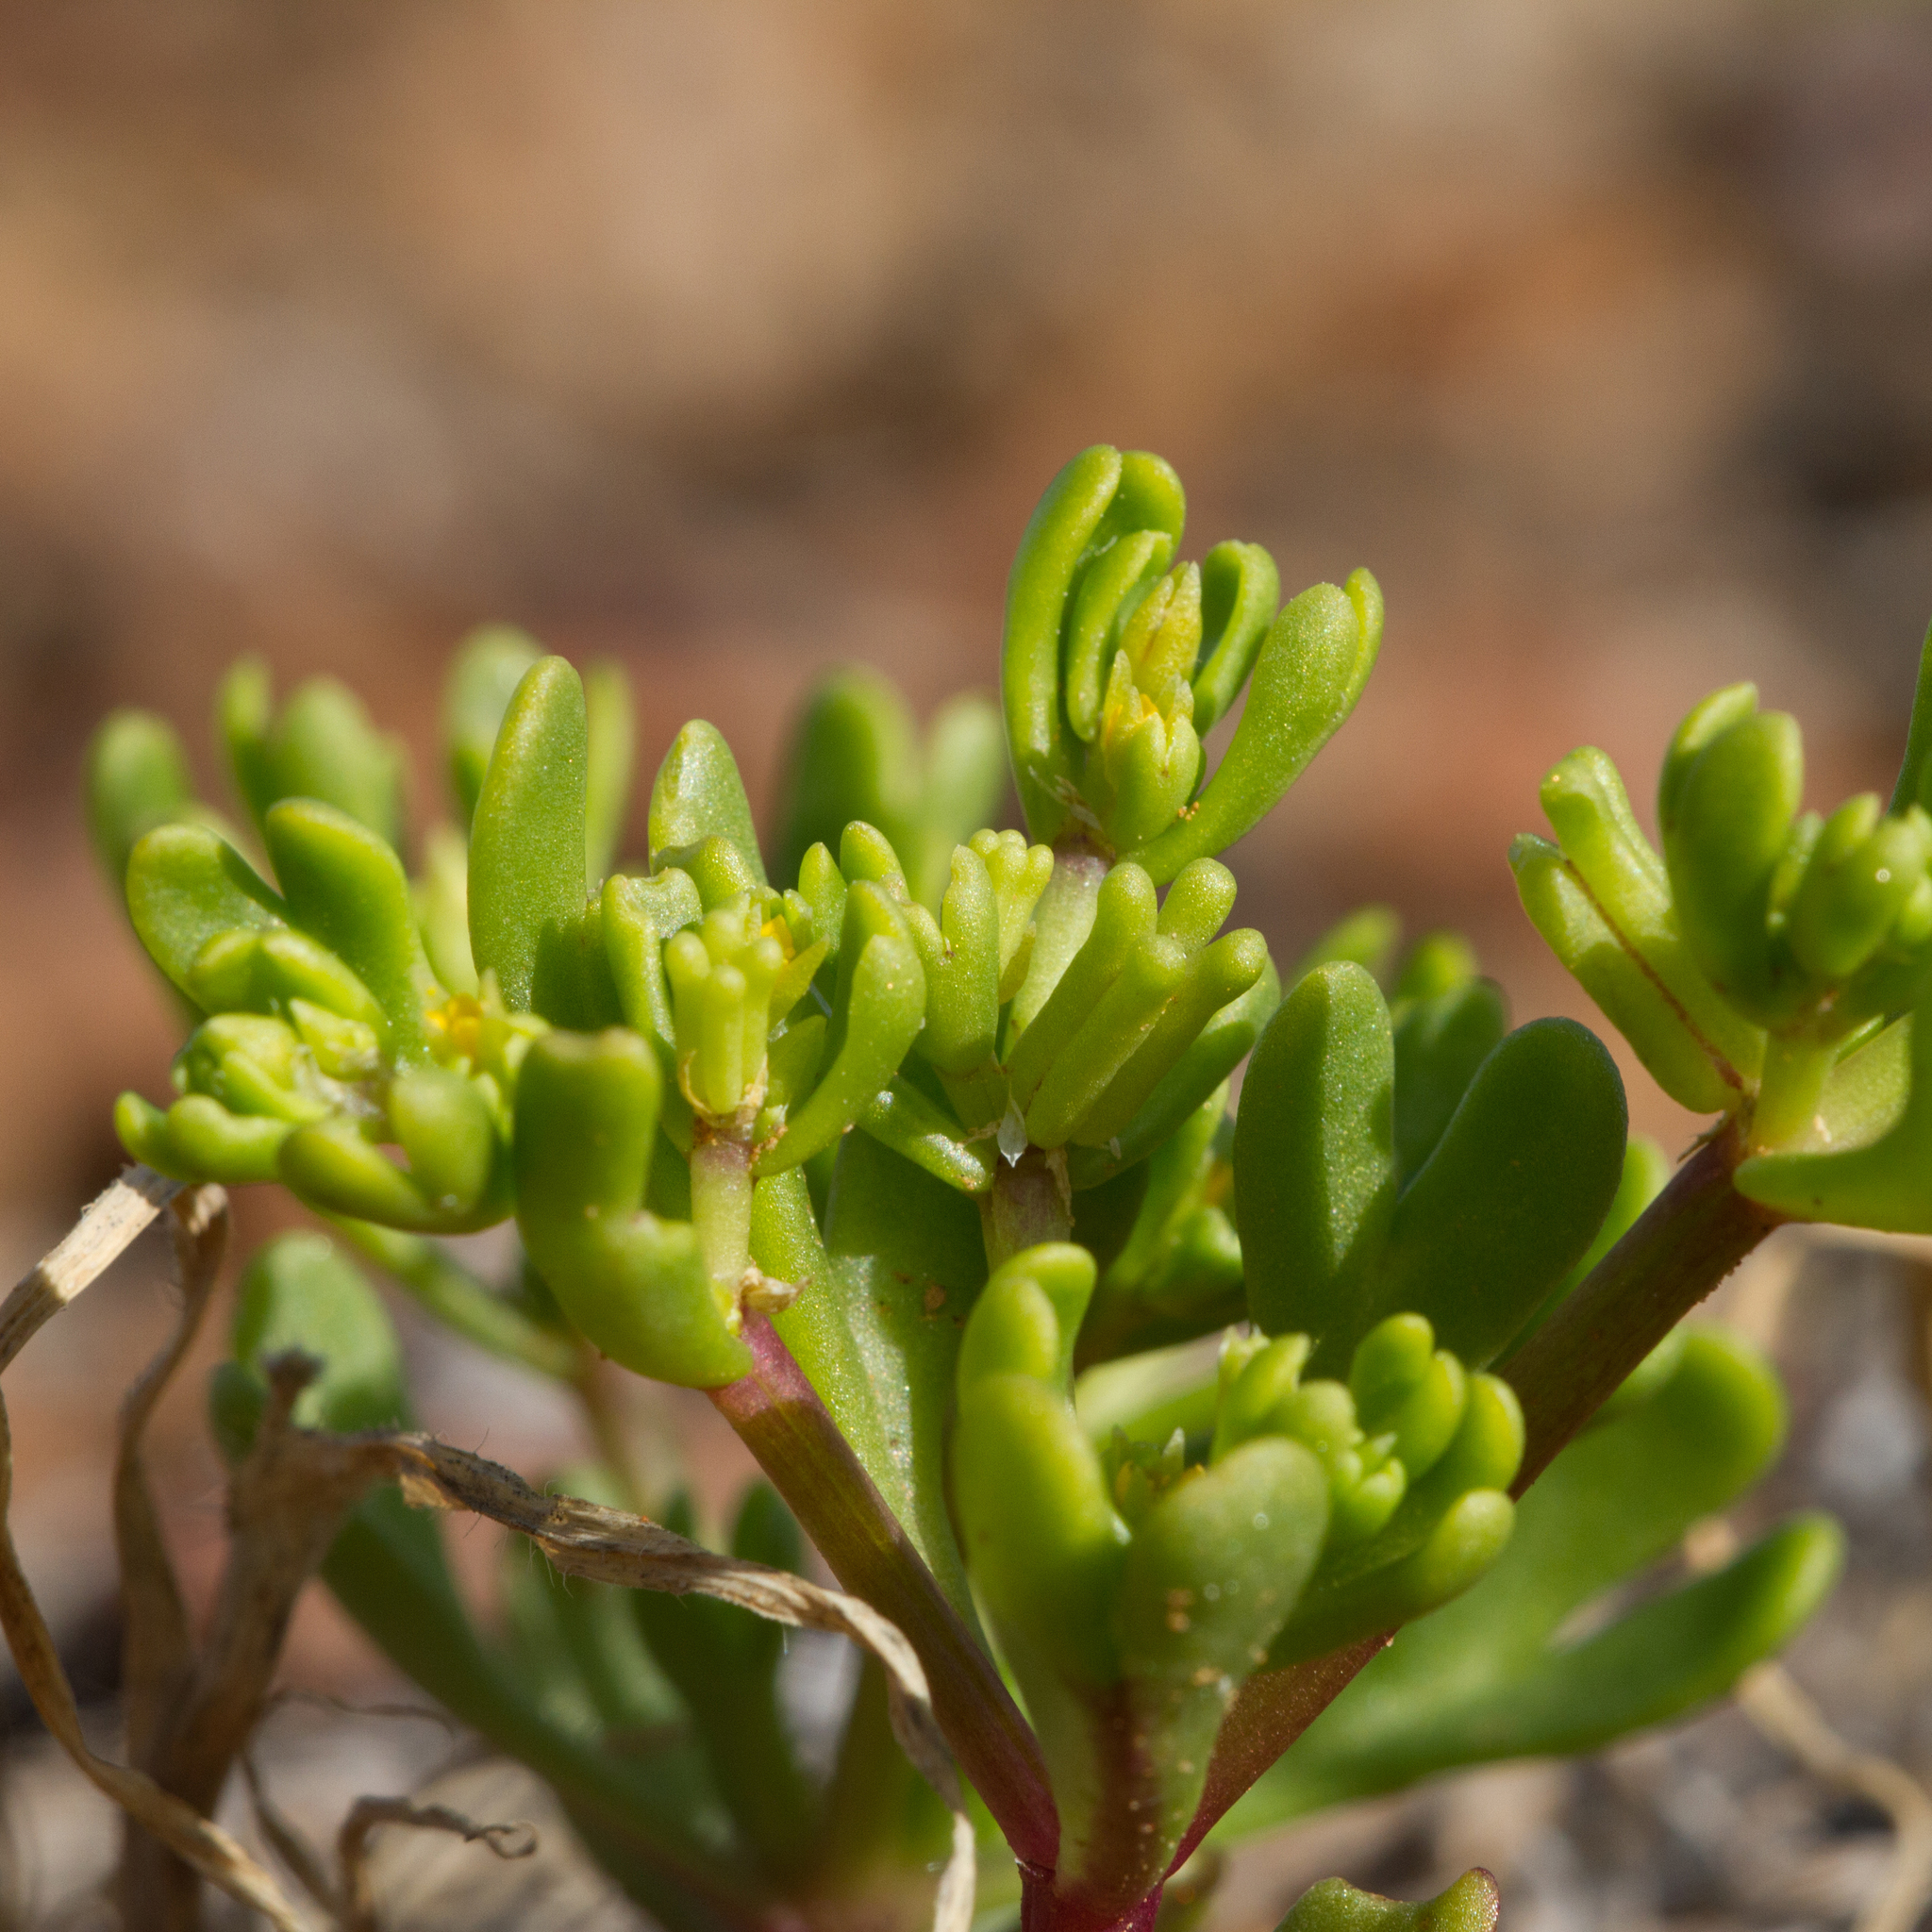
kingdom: Plantae
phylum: Tracheophyta
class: Magnoliopsida
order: Zygophyllales
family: Zygophyllaceae
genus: Roepera
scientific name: Roepera prismatotheca
